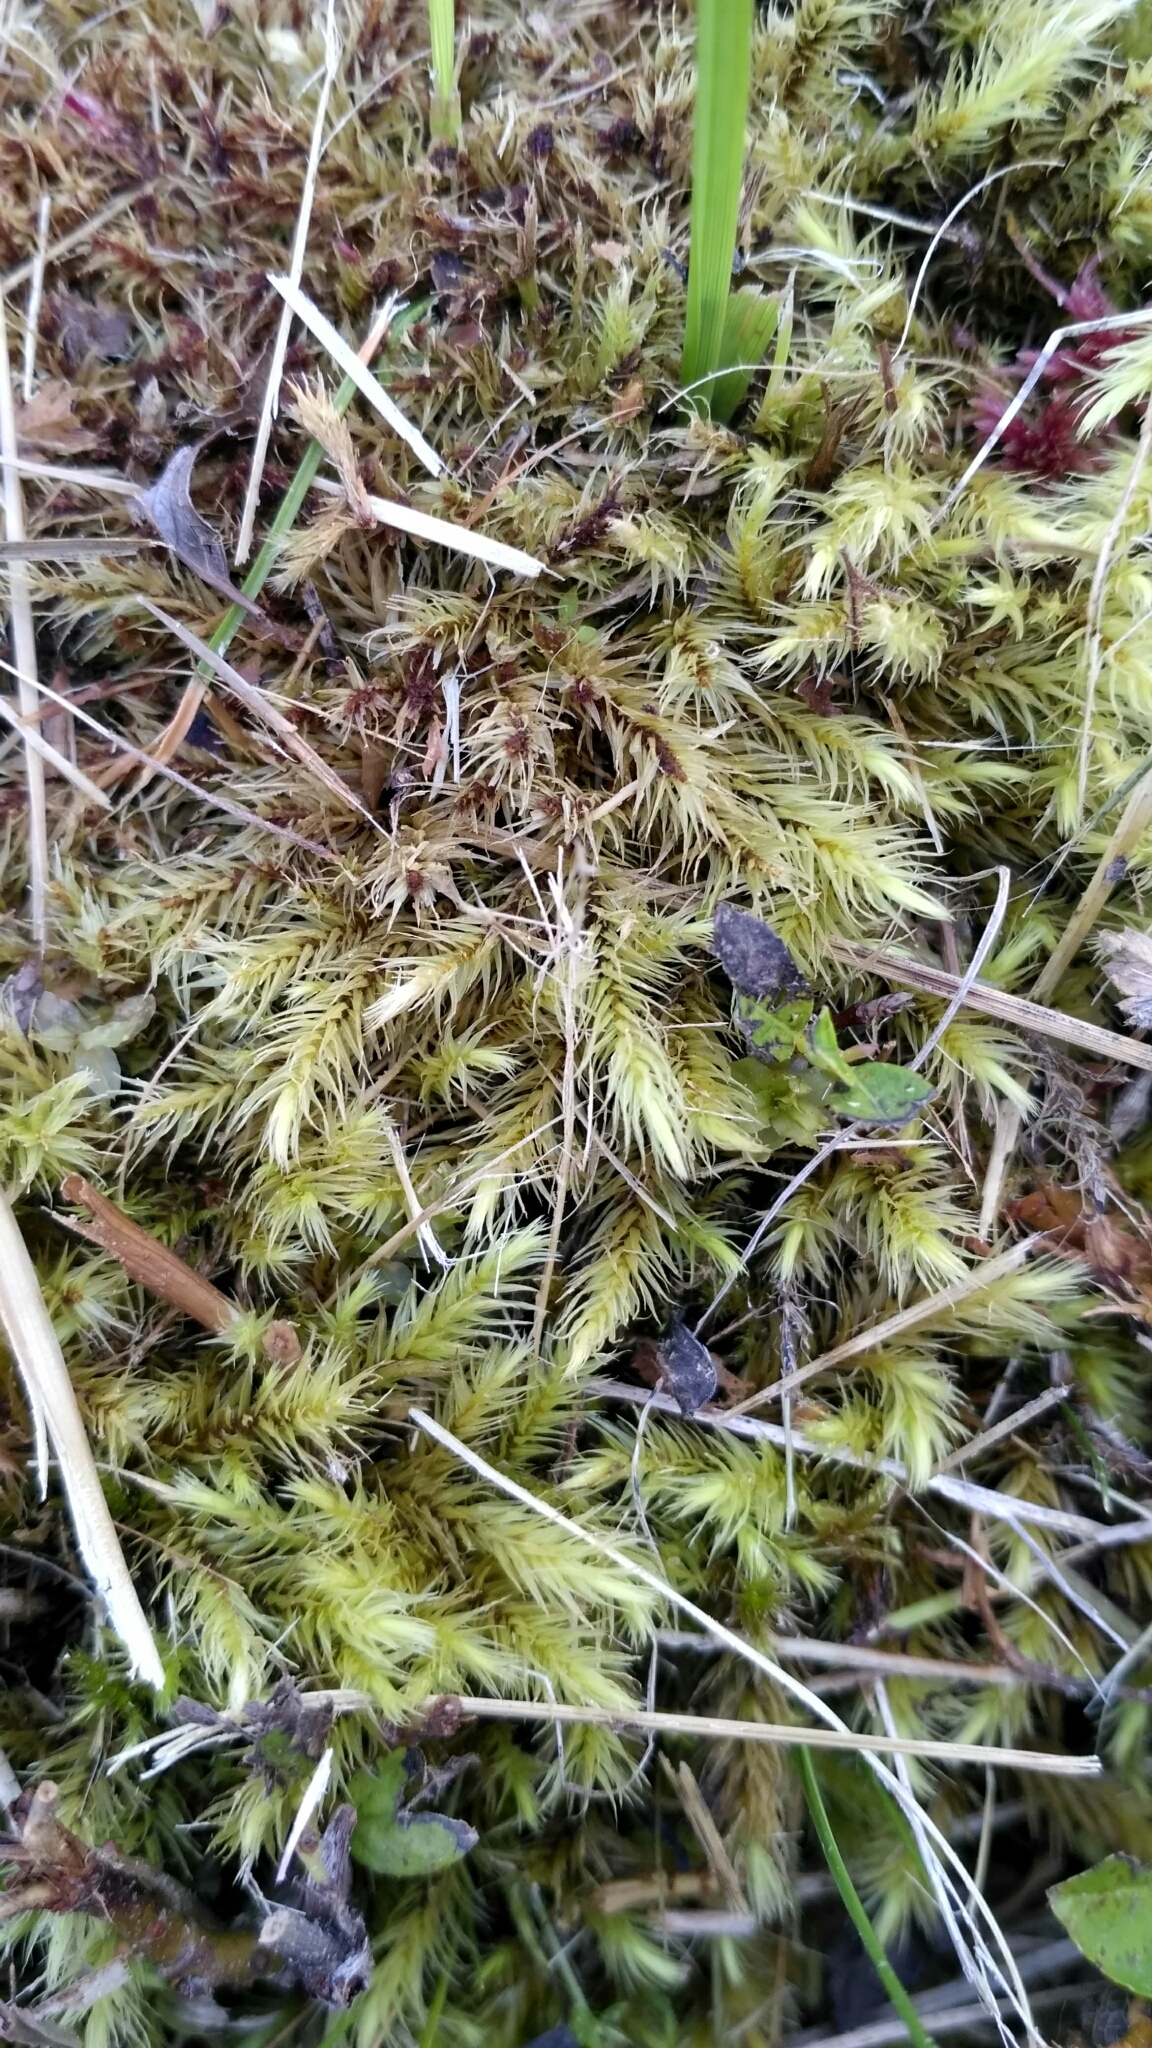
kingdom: Plantae
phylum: Bryophyta
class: Bryopsida
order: Aulacomniales
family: Aulacomniaceae
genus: Aulacomnium
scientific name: Aulacomnium palustre
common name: Bog groove-moss
